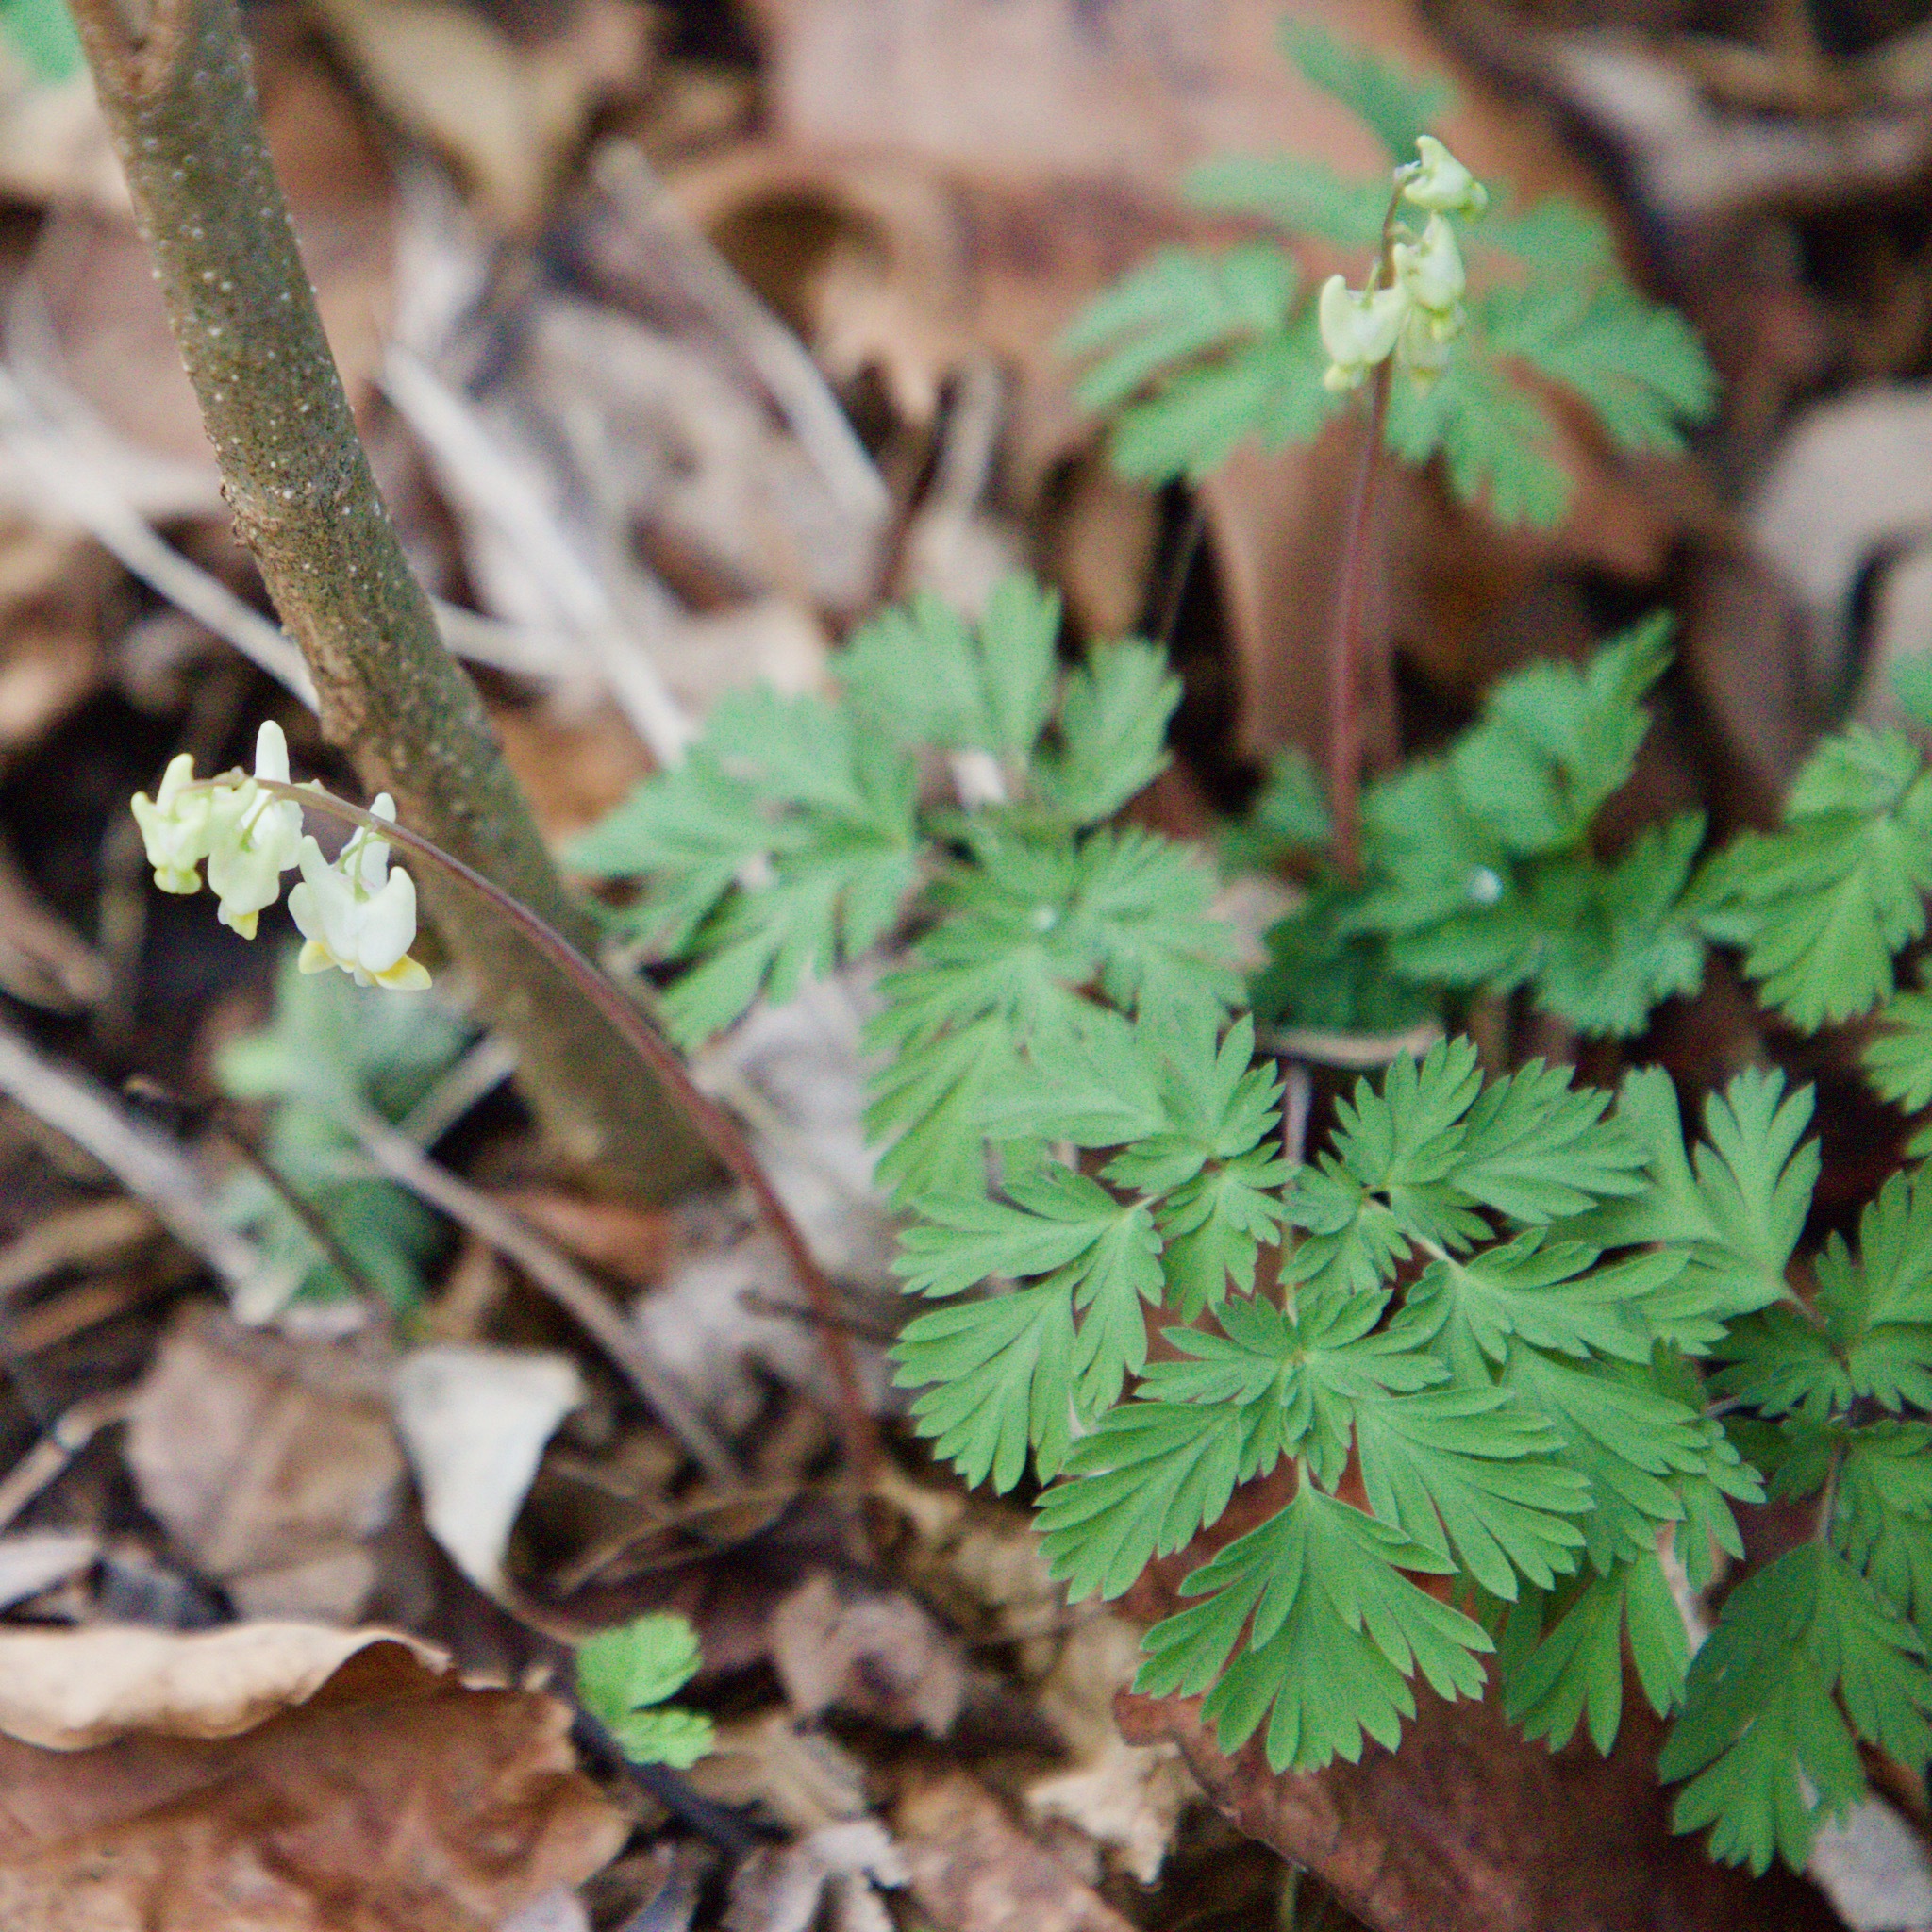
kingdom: Plantae
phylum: Tracheophyta
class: Magnoliopsida
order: Ranunculales
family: Papaveraceae
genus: Dicentra
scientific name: Dicentra cucullaria
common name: Dutchman's breeches
